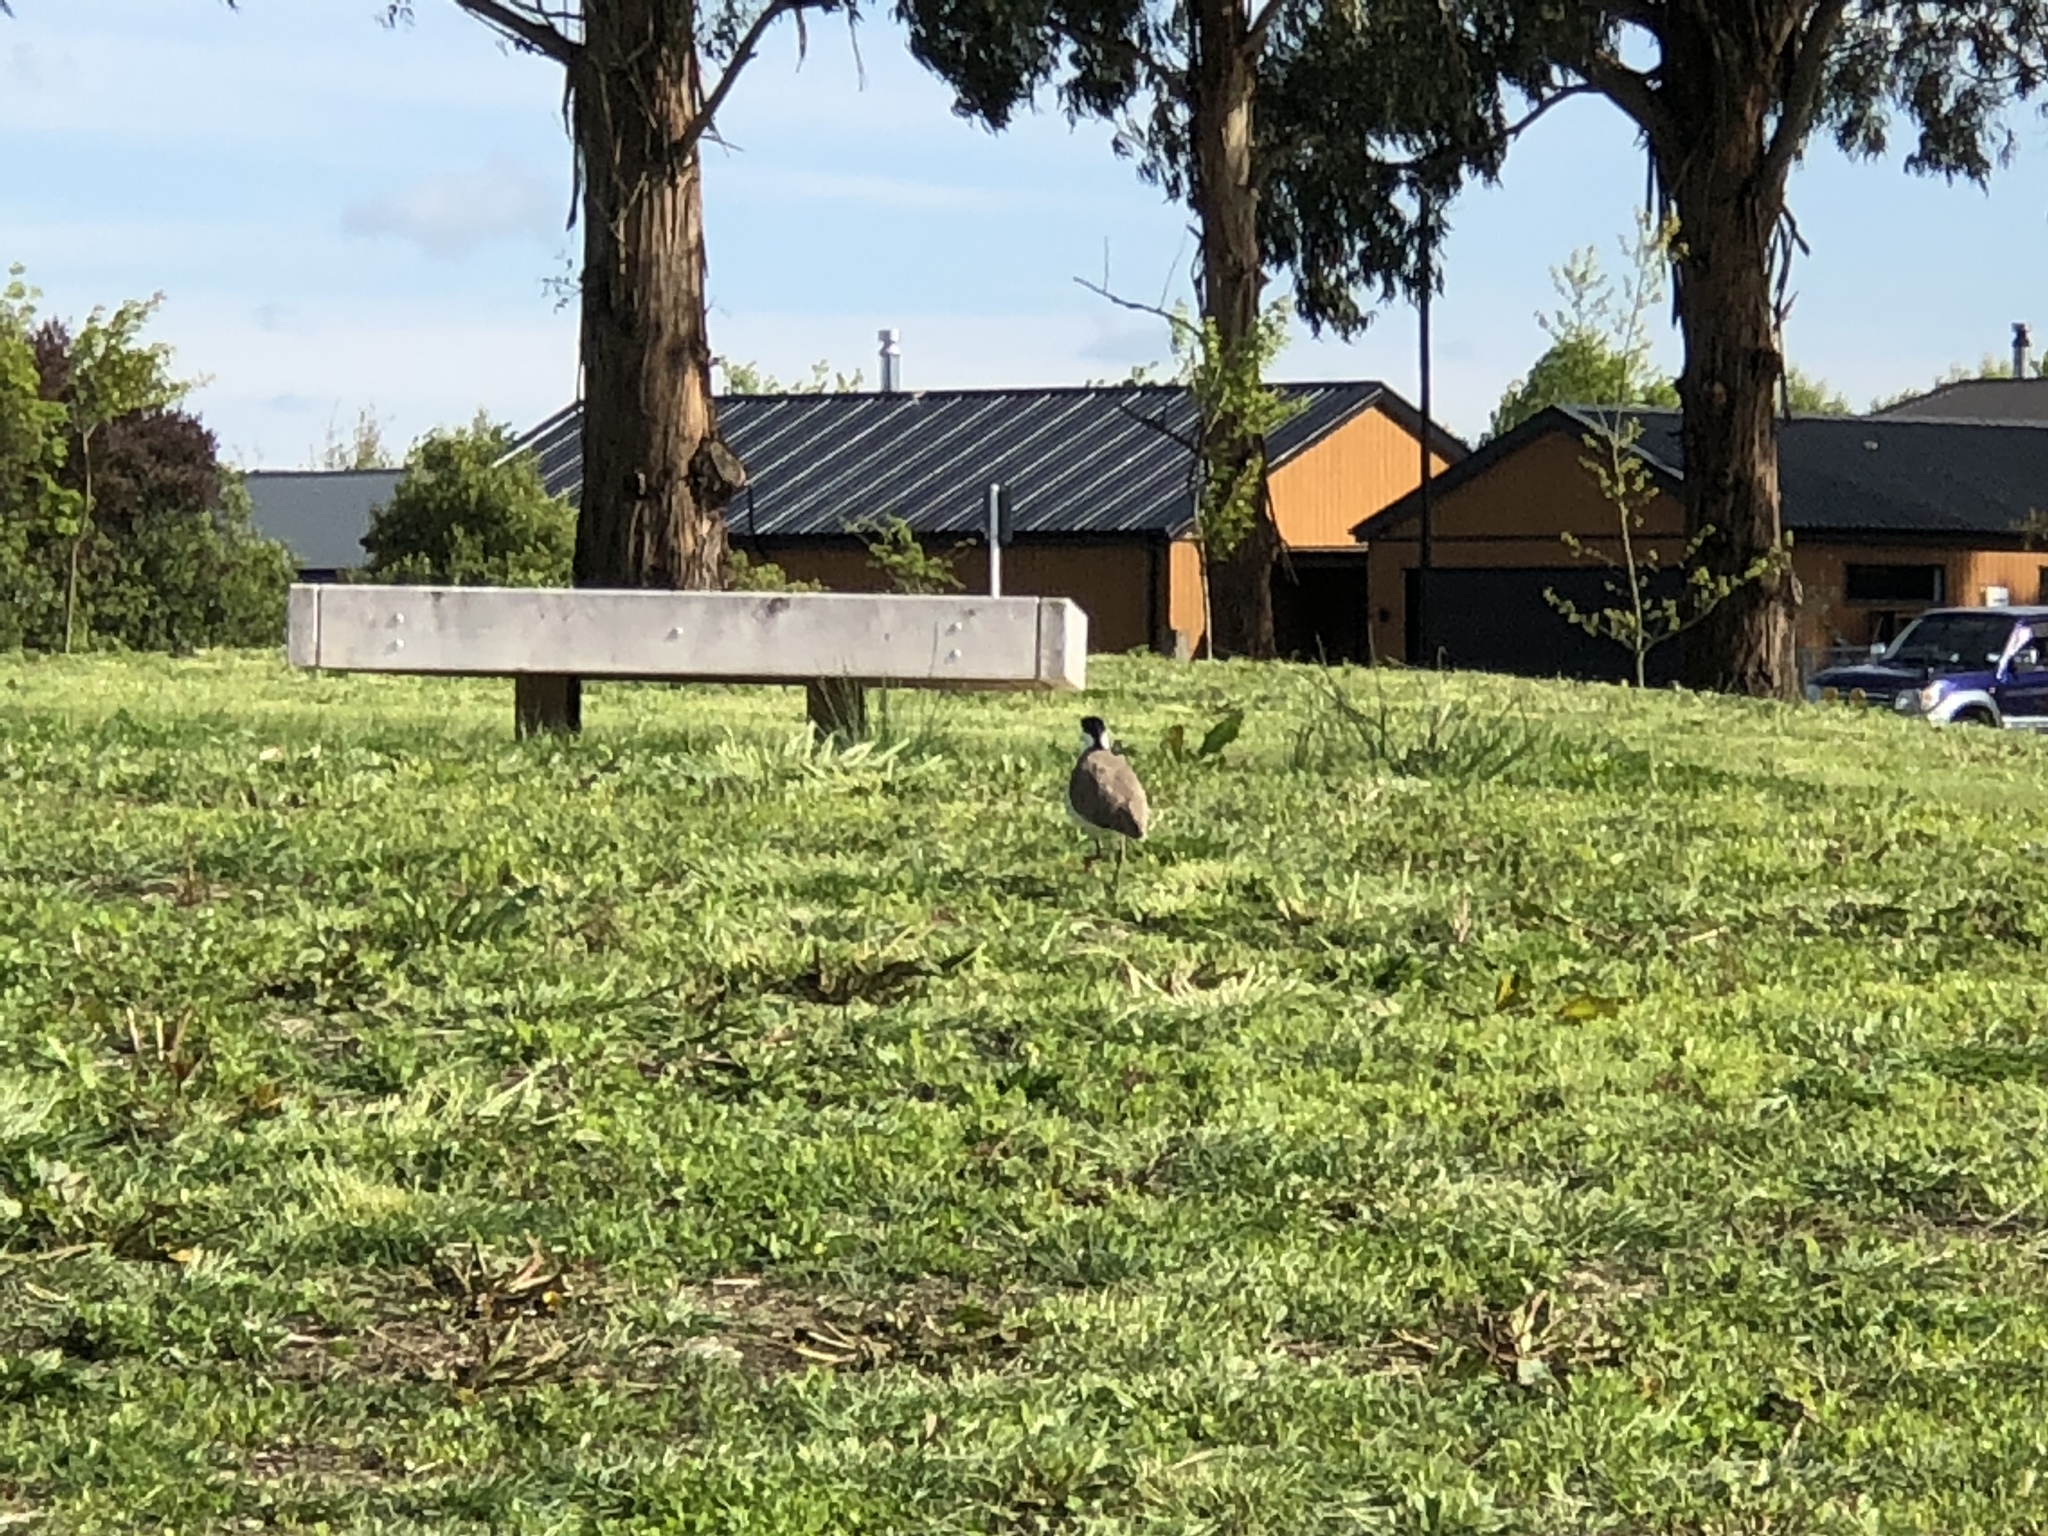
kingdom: Animalia
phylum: Chordata
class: Aves
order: Charadriiformes
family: Charadriidae
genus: Vanellus
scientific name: Vanellus miles
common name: Masked lapwing
